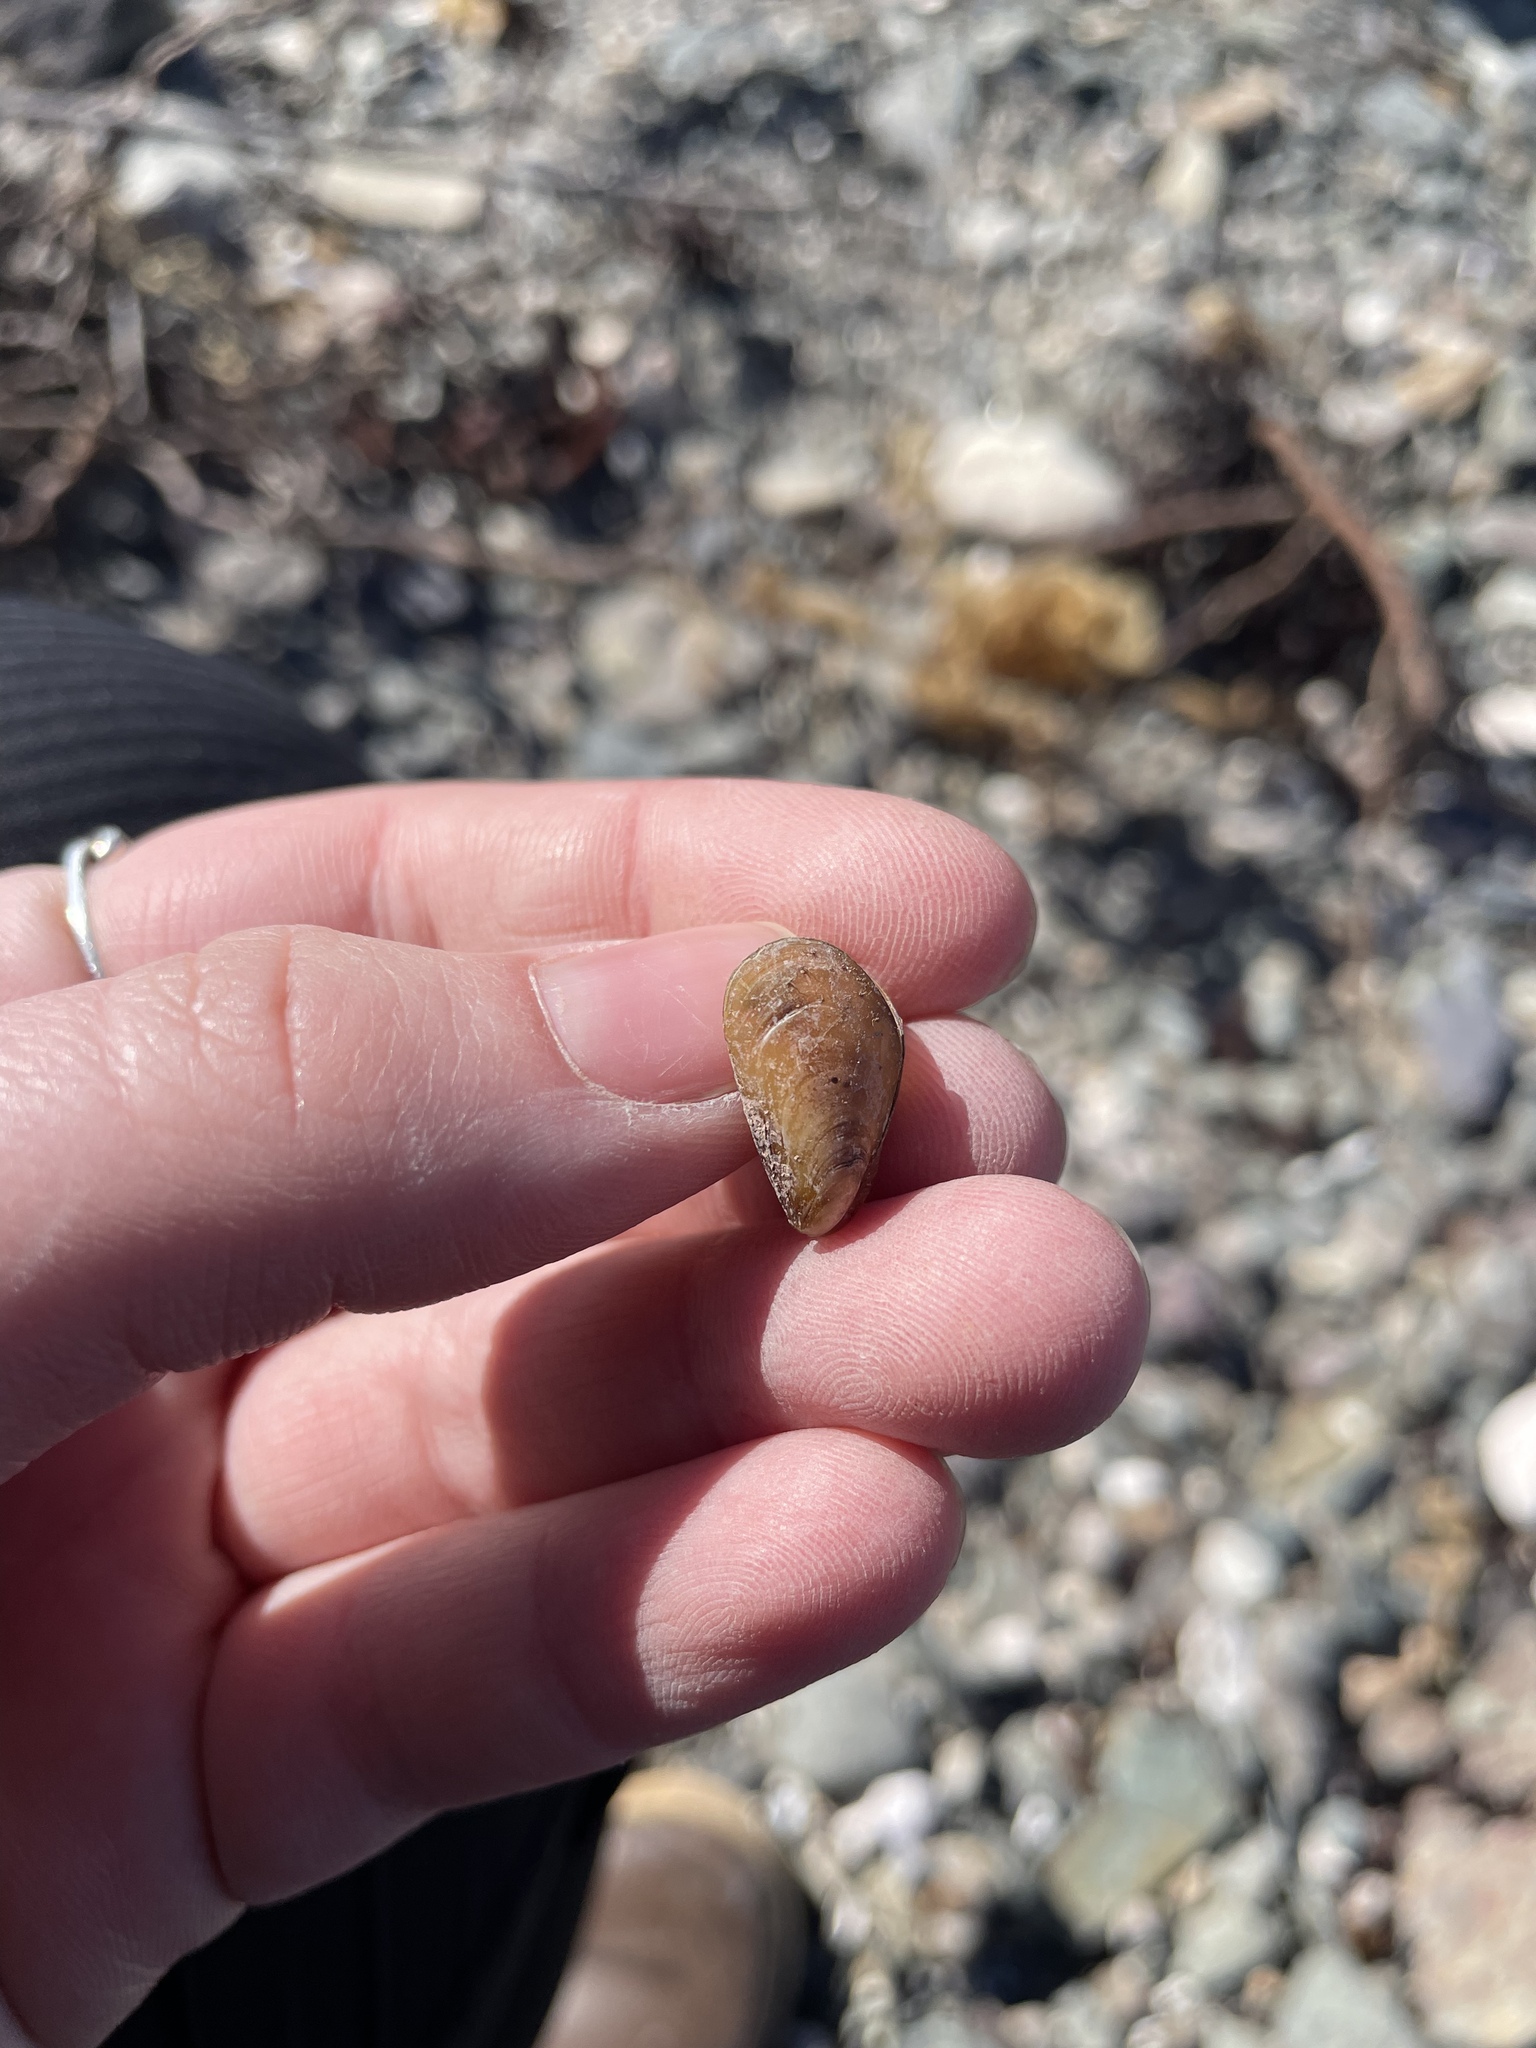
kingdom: Animalia
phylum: Mollusca
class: Bivalvia
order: Mytilida
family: Mytilidae
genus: Modiolus
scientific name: Modiolus modiolus
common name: Horse-mussel
